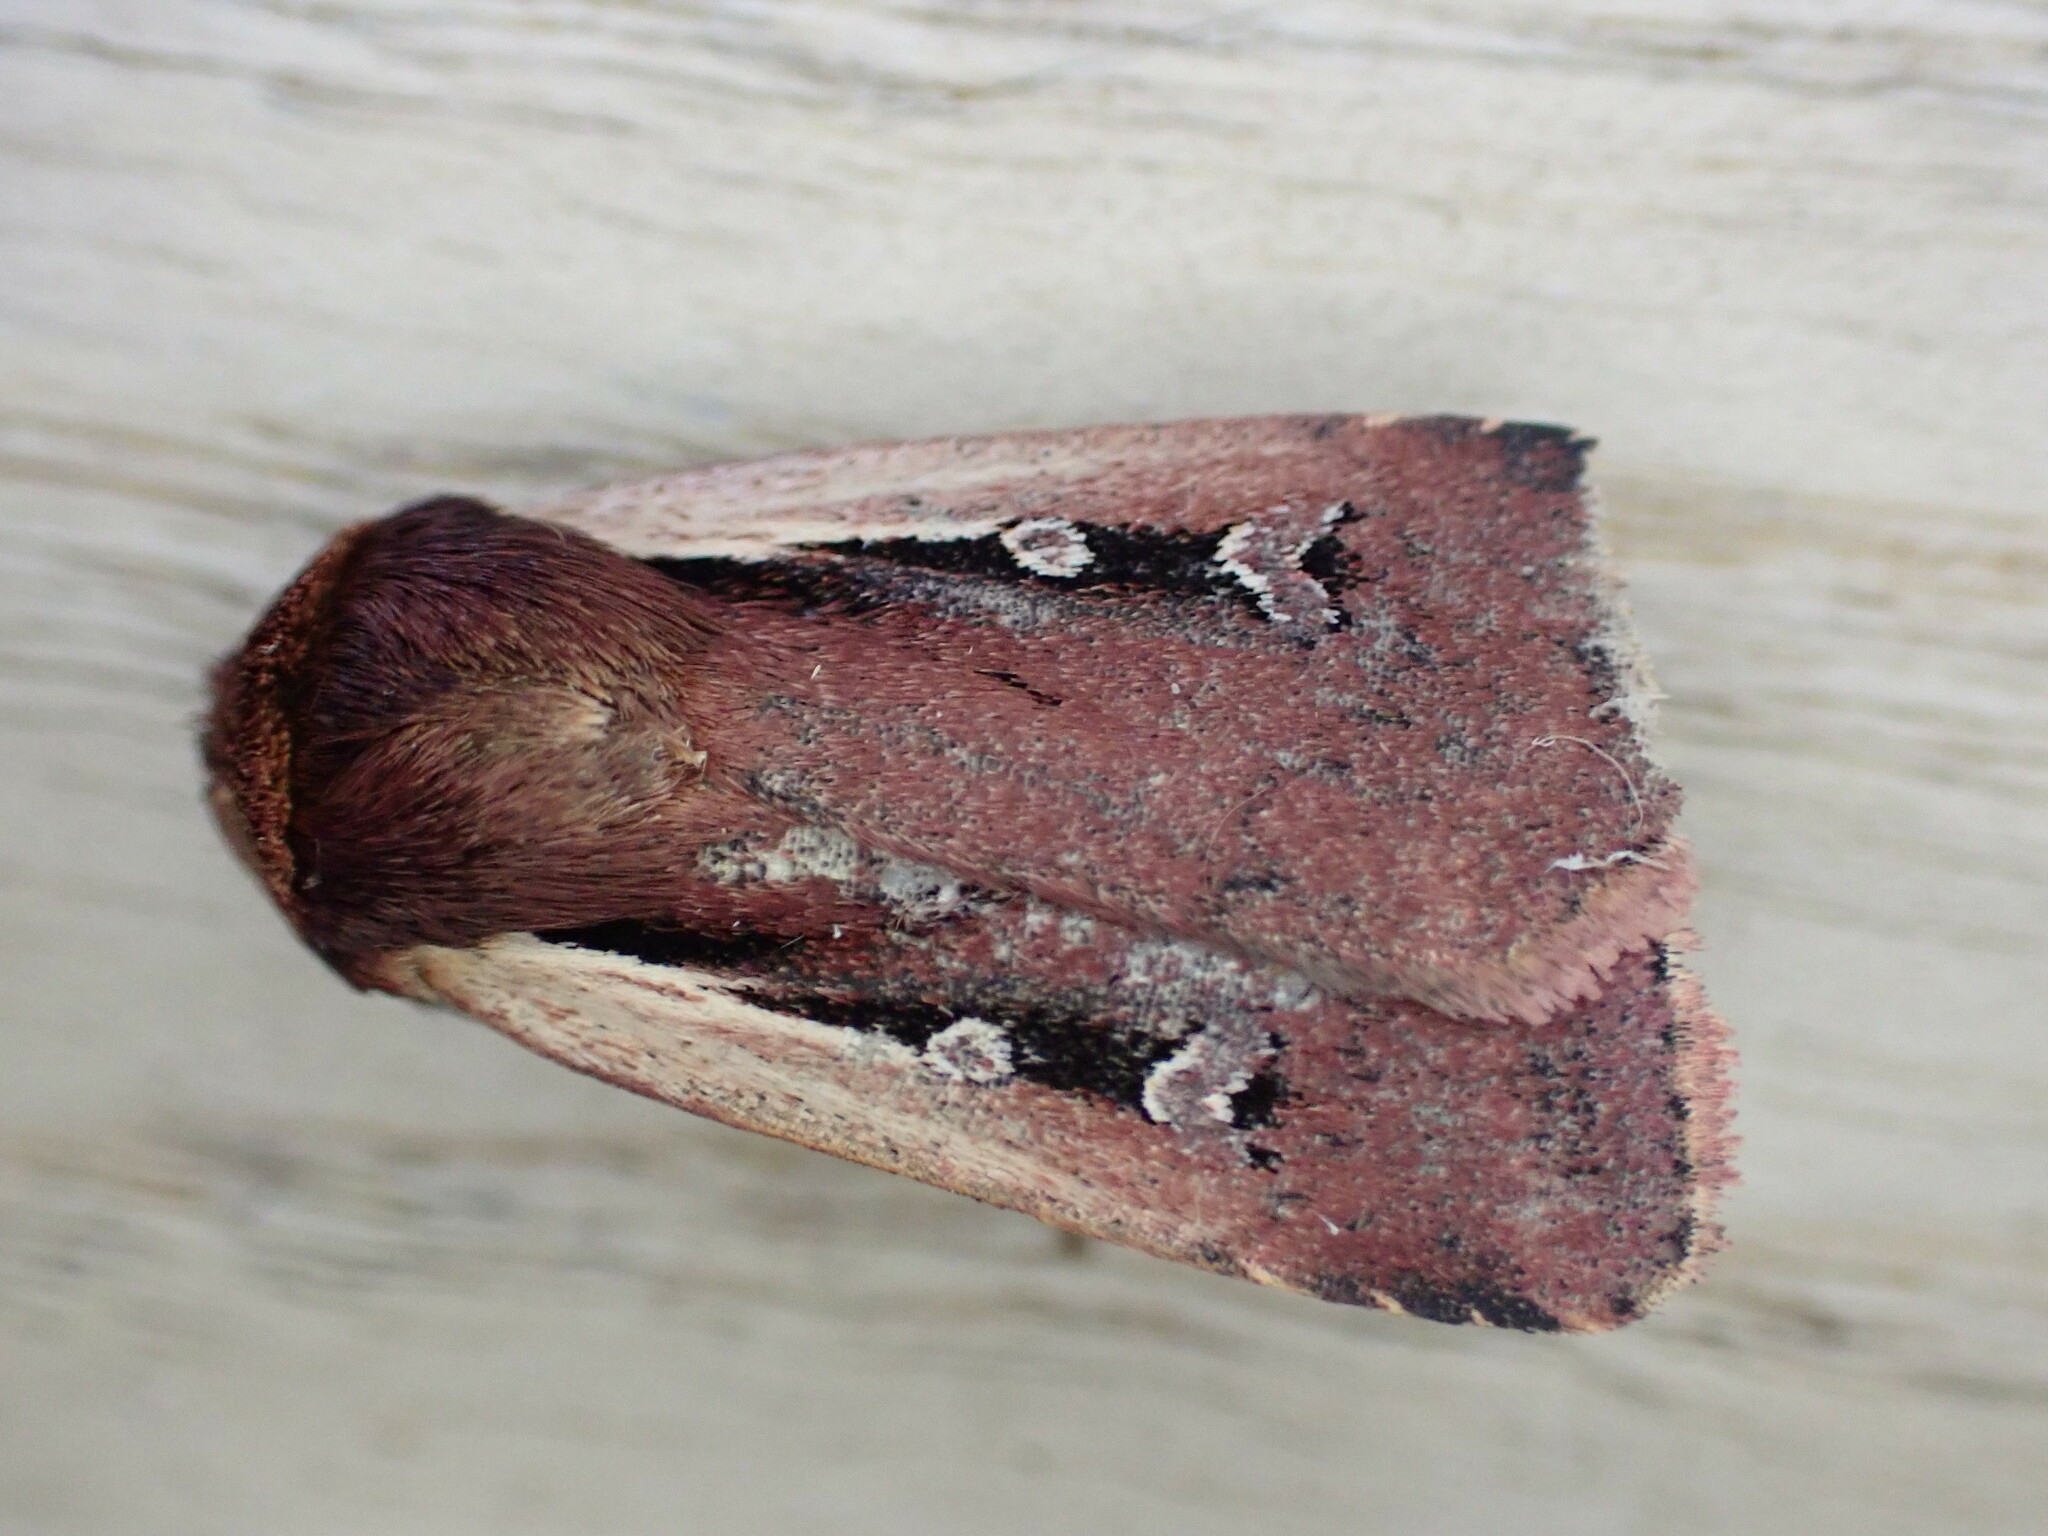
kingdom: Animalia
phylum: Arthropoda
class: Insecta
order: Lepidoptera
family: Noctuidae
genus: Ochropleura
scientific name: Ochropleura plecta
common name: Flame shoulder
